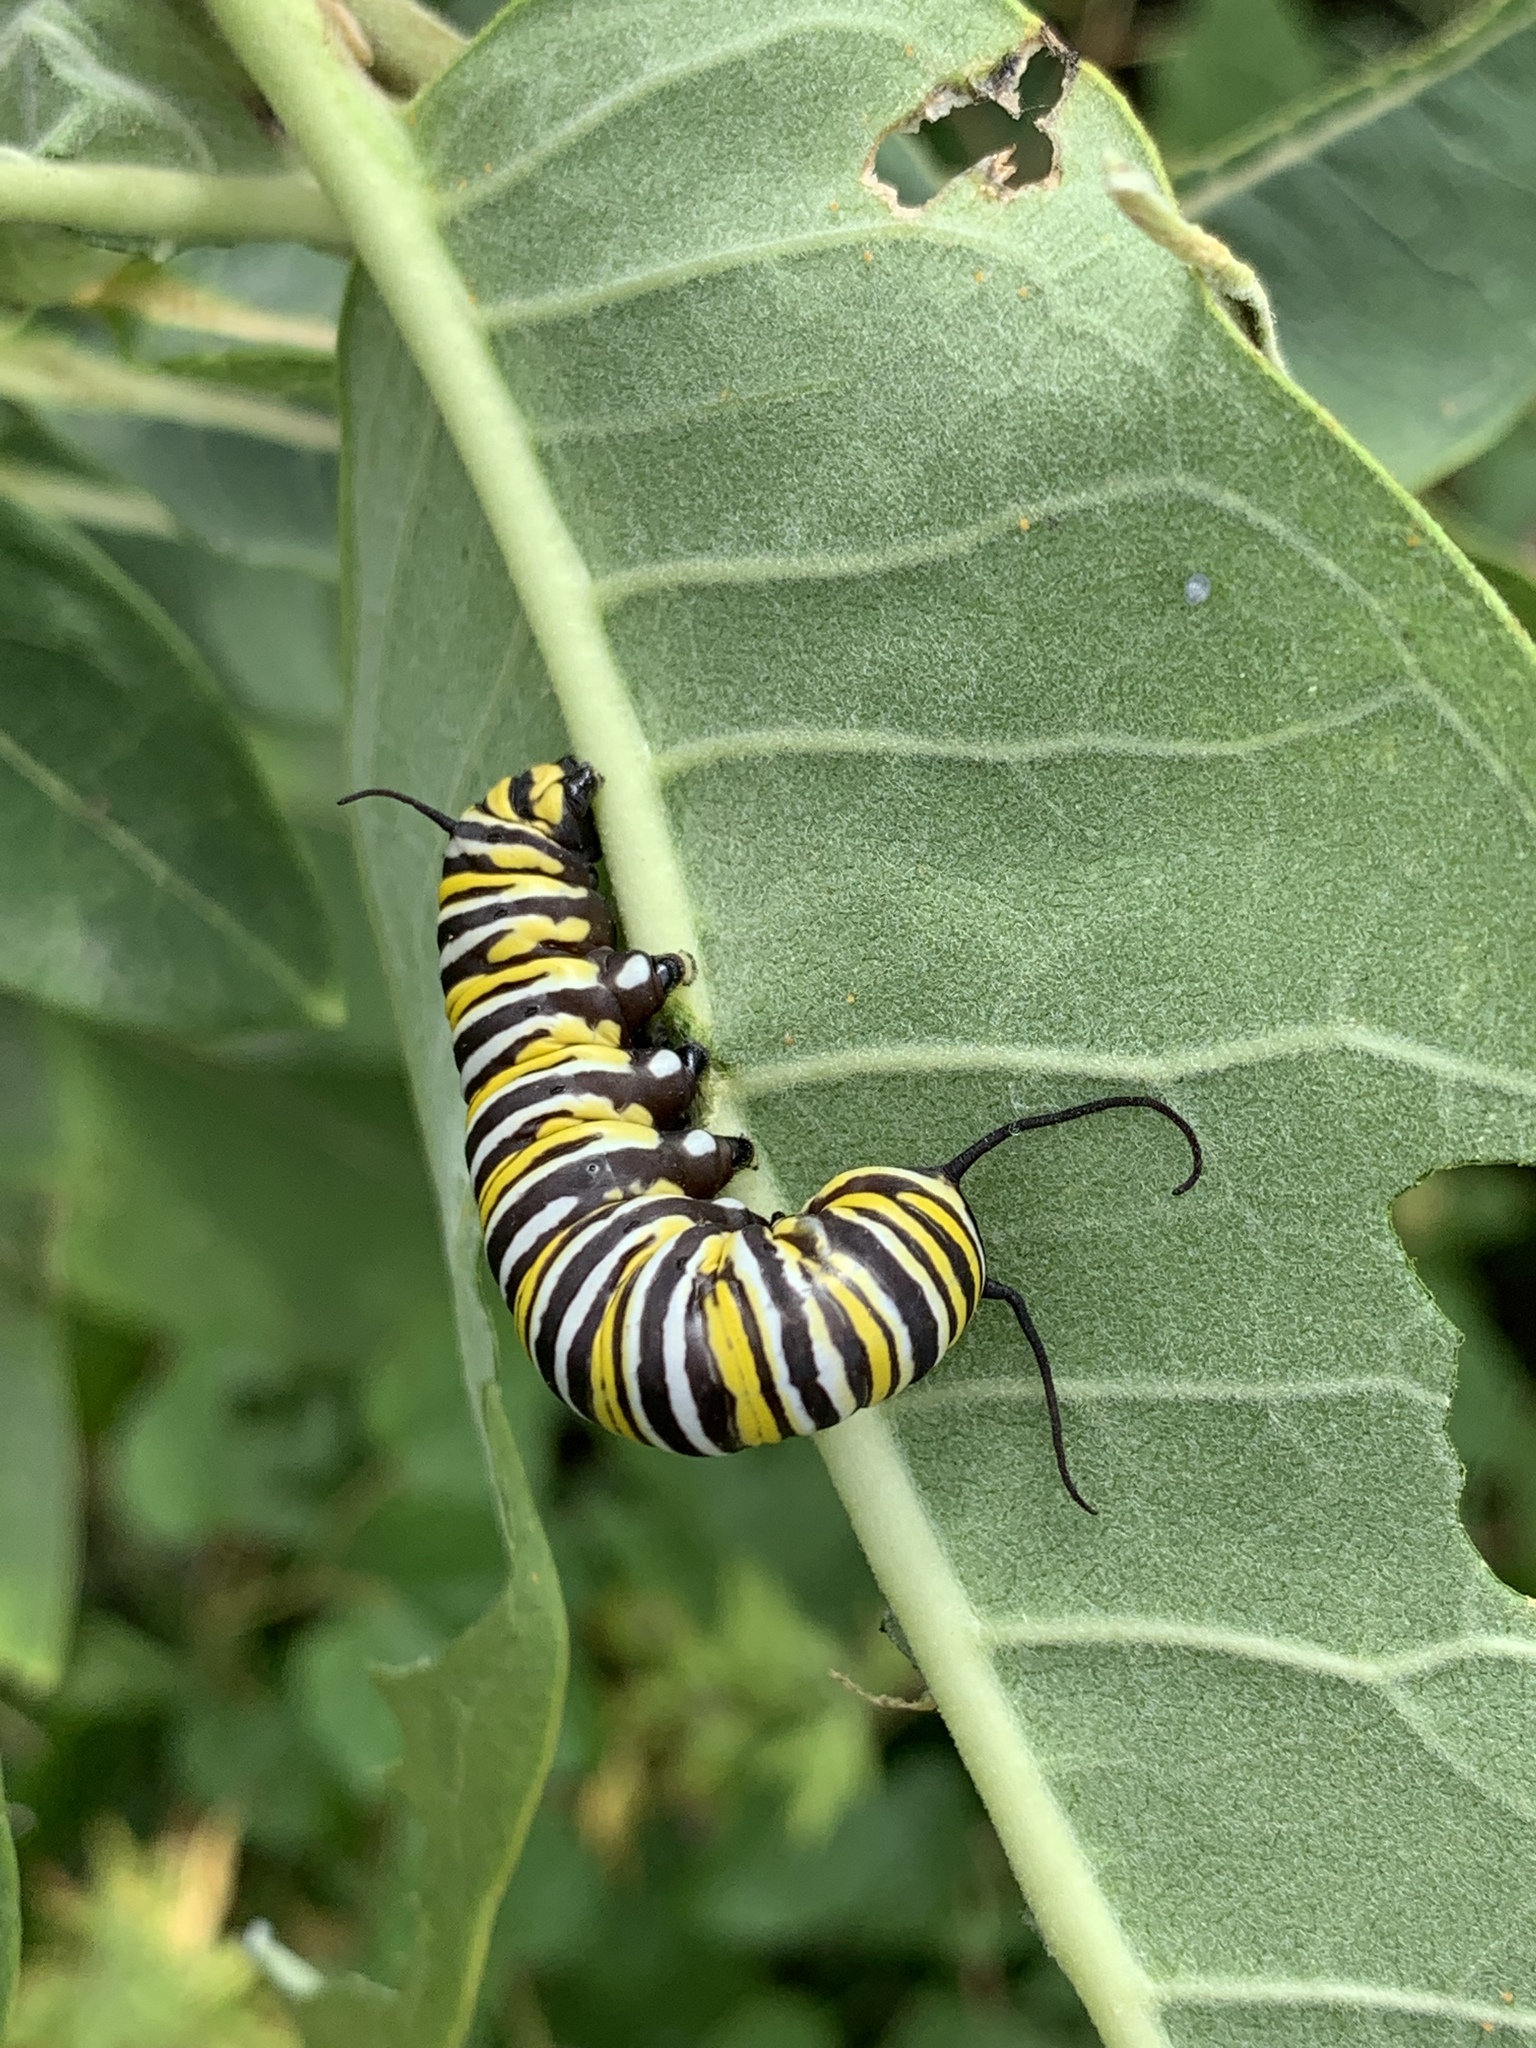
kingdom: Animalia
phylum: Arthropoda
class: Insecta
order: Lepidoptera
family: Nymphalidae
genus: Danaus
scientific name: Danaus plexippus
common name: Monarch
